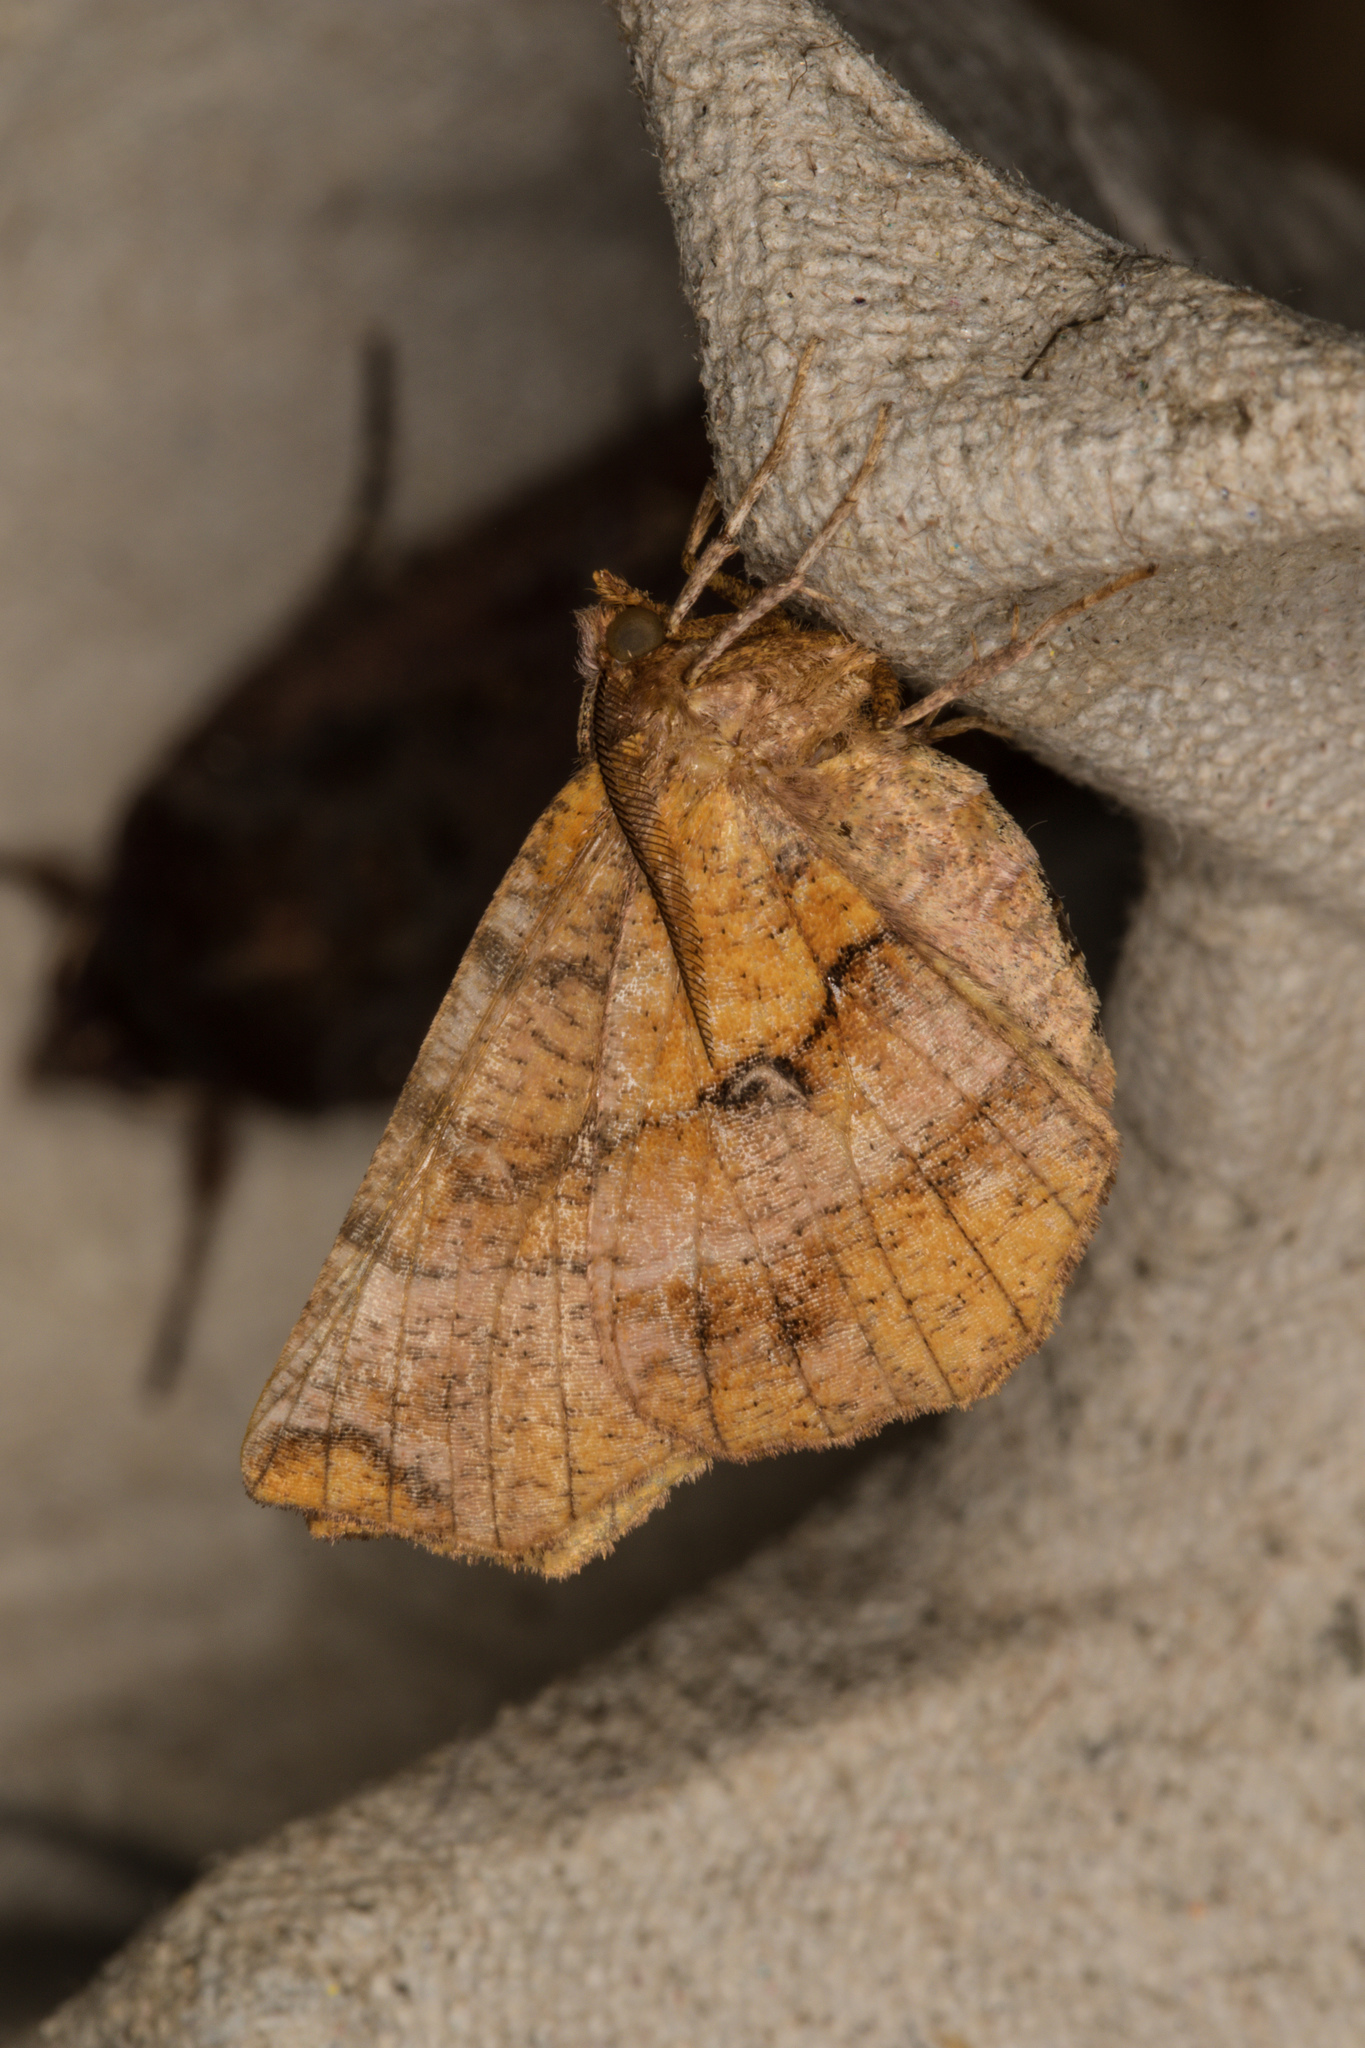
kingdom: Animalia
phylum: Arthropoda
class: Insecta
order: Lepidoptera
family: Geometridae
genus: Selenia
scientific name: Selenia dentaria
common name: Early thorn
